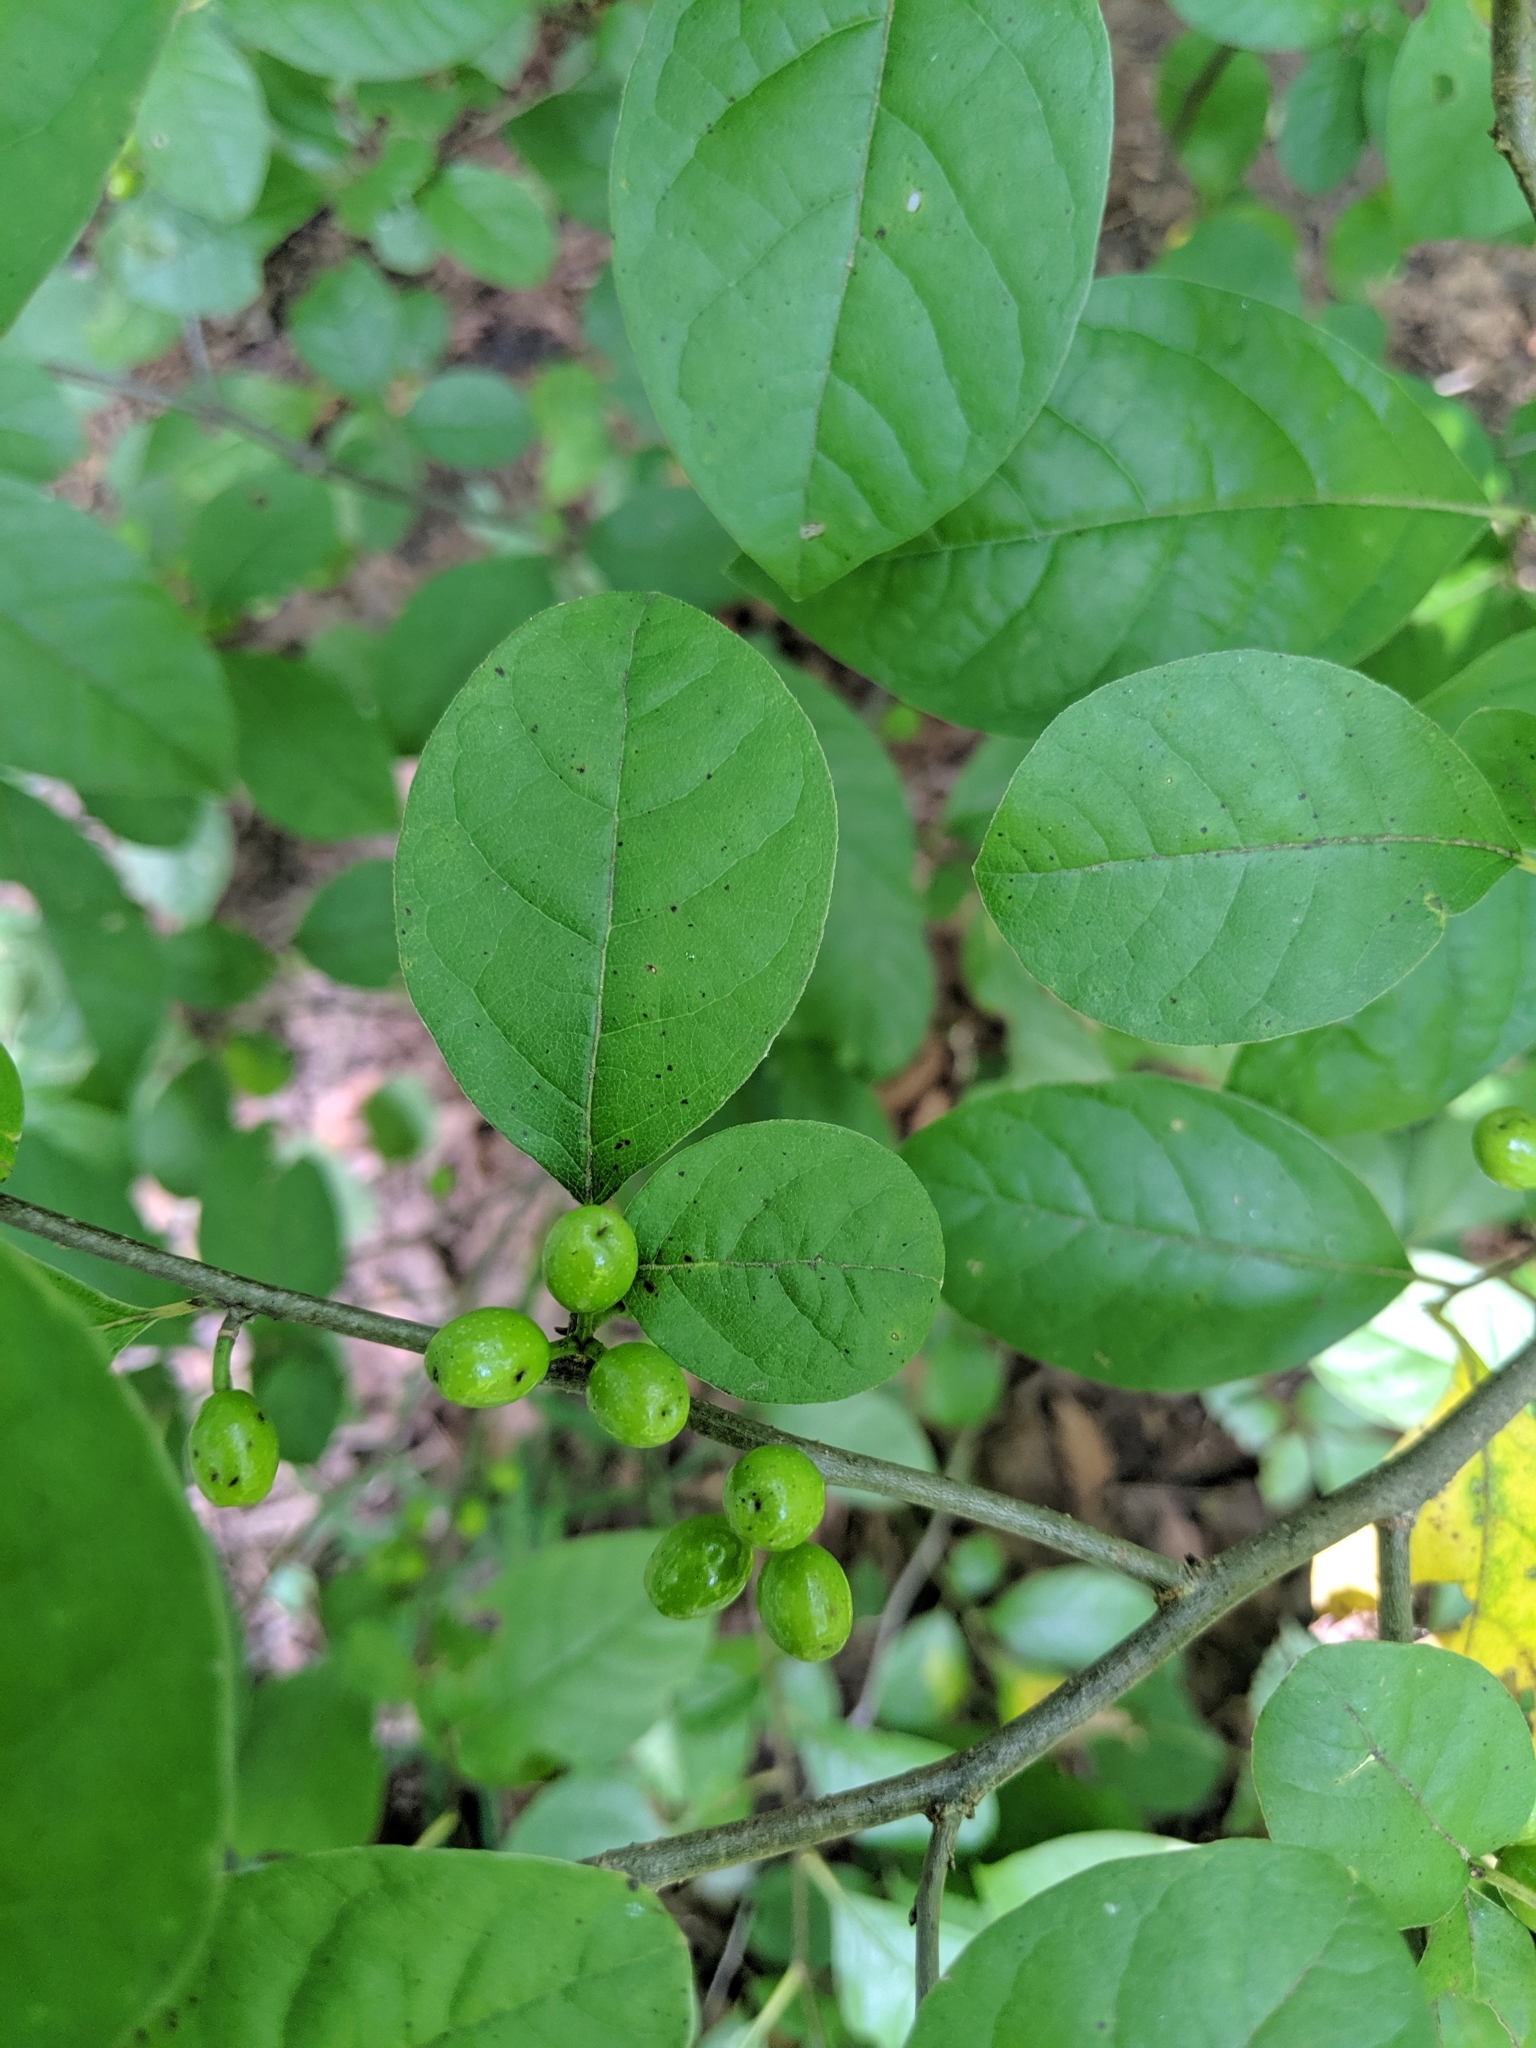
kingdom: Plantae
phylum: Tracheophyta
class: Magnoliopsida
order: Laurales
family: Lauraceae
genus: Lindera
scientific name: Lindera benzoin
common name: Spicebush
